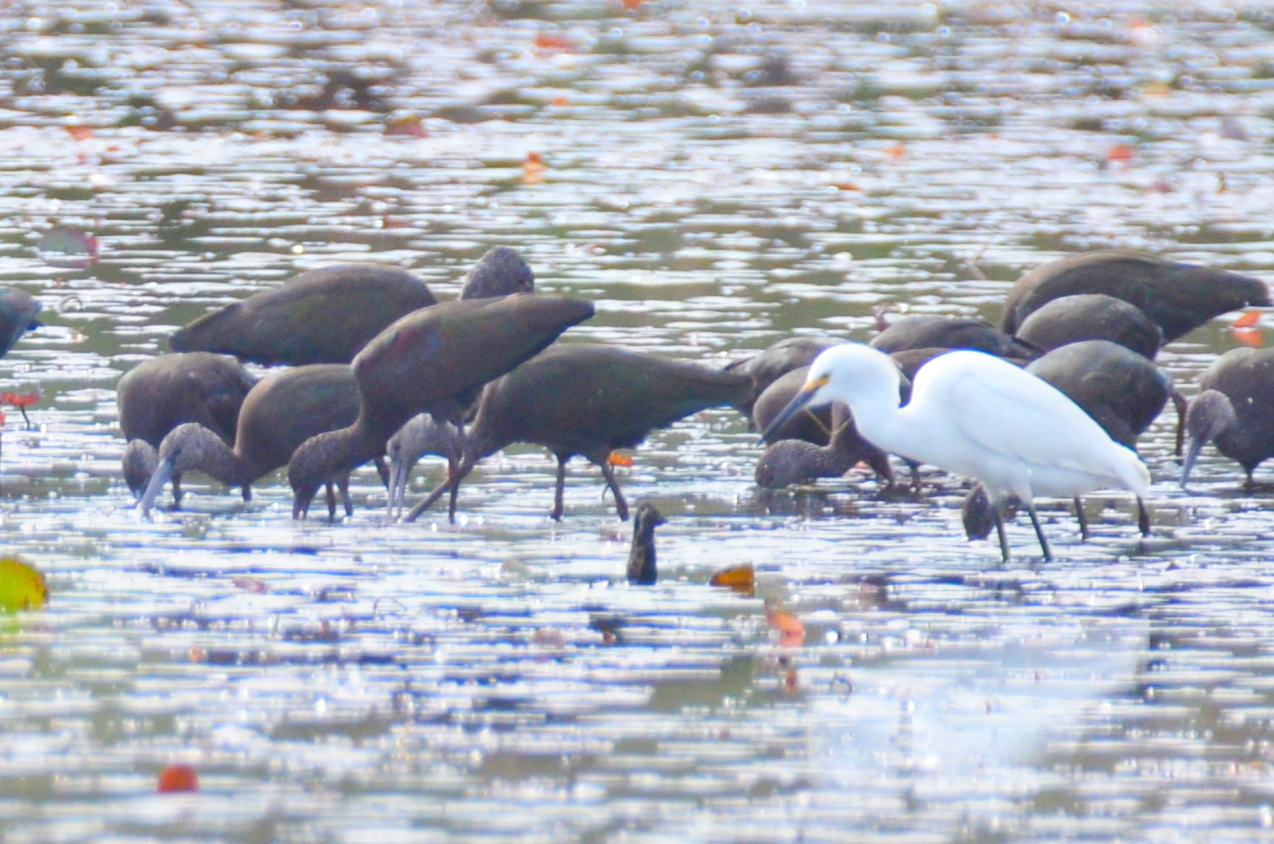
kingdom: Animalia
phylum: Chordata
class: Aves
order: Pelecaniformes
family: Threskiornithidae
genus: Plegadis
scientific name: Plegadis falcinellus
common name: Glossy ibis
